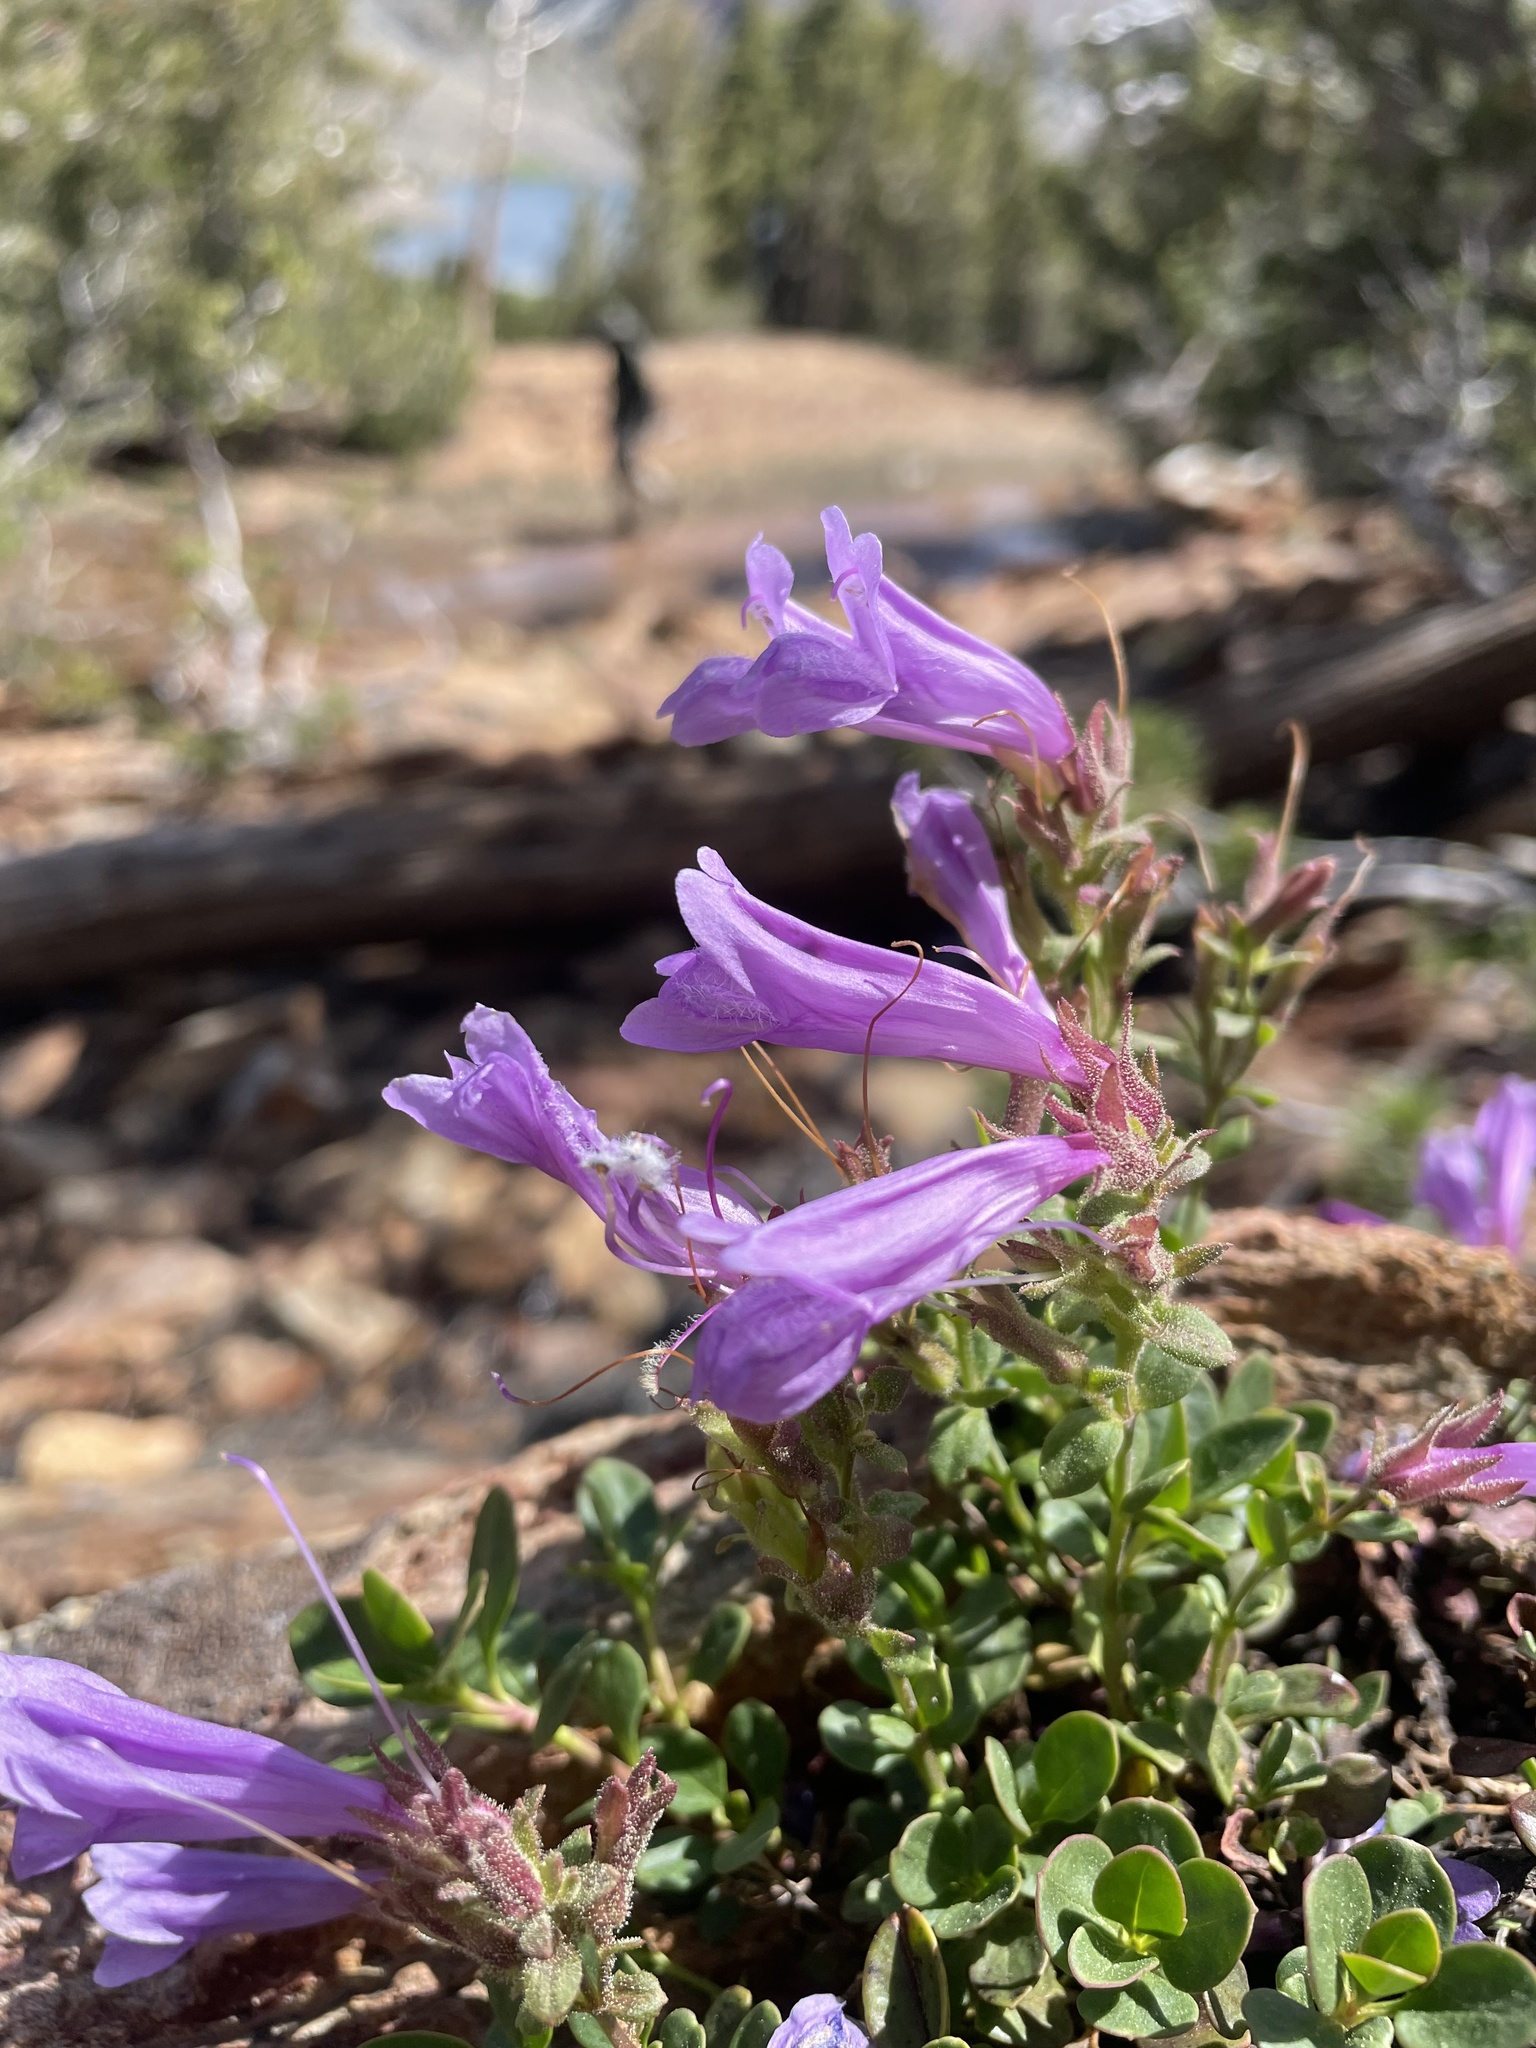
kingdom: Plantae
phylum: Tracheophyta
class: Magnoliopsida
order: Lamiales
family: Plantaginaceae
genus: Penstemon
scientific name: Penstemon davidsonii
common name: Davidson's penstemon
